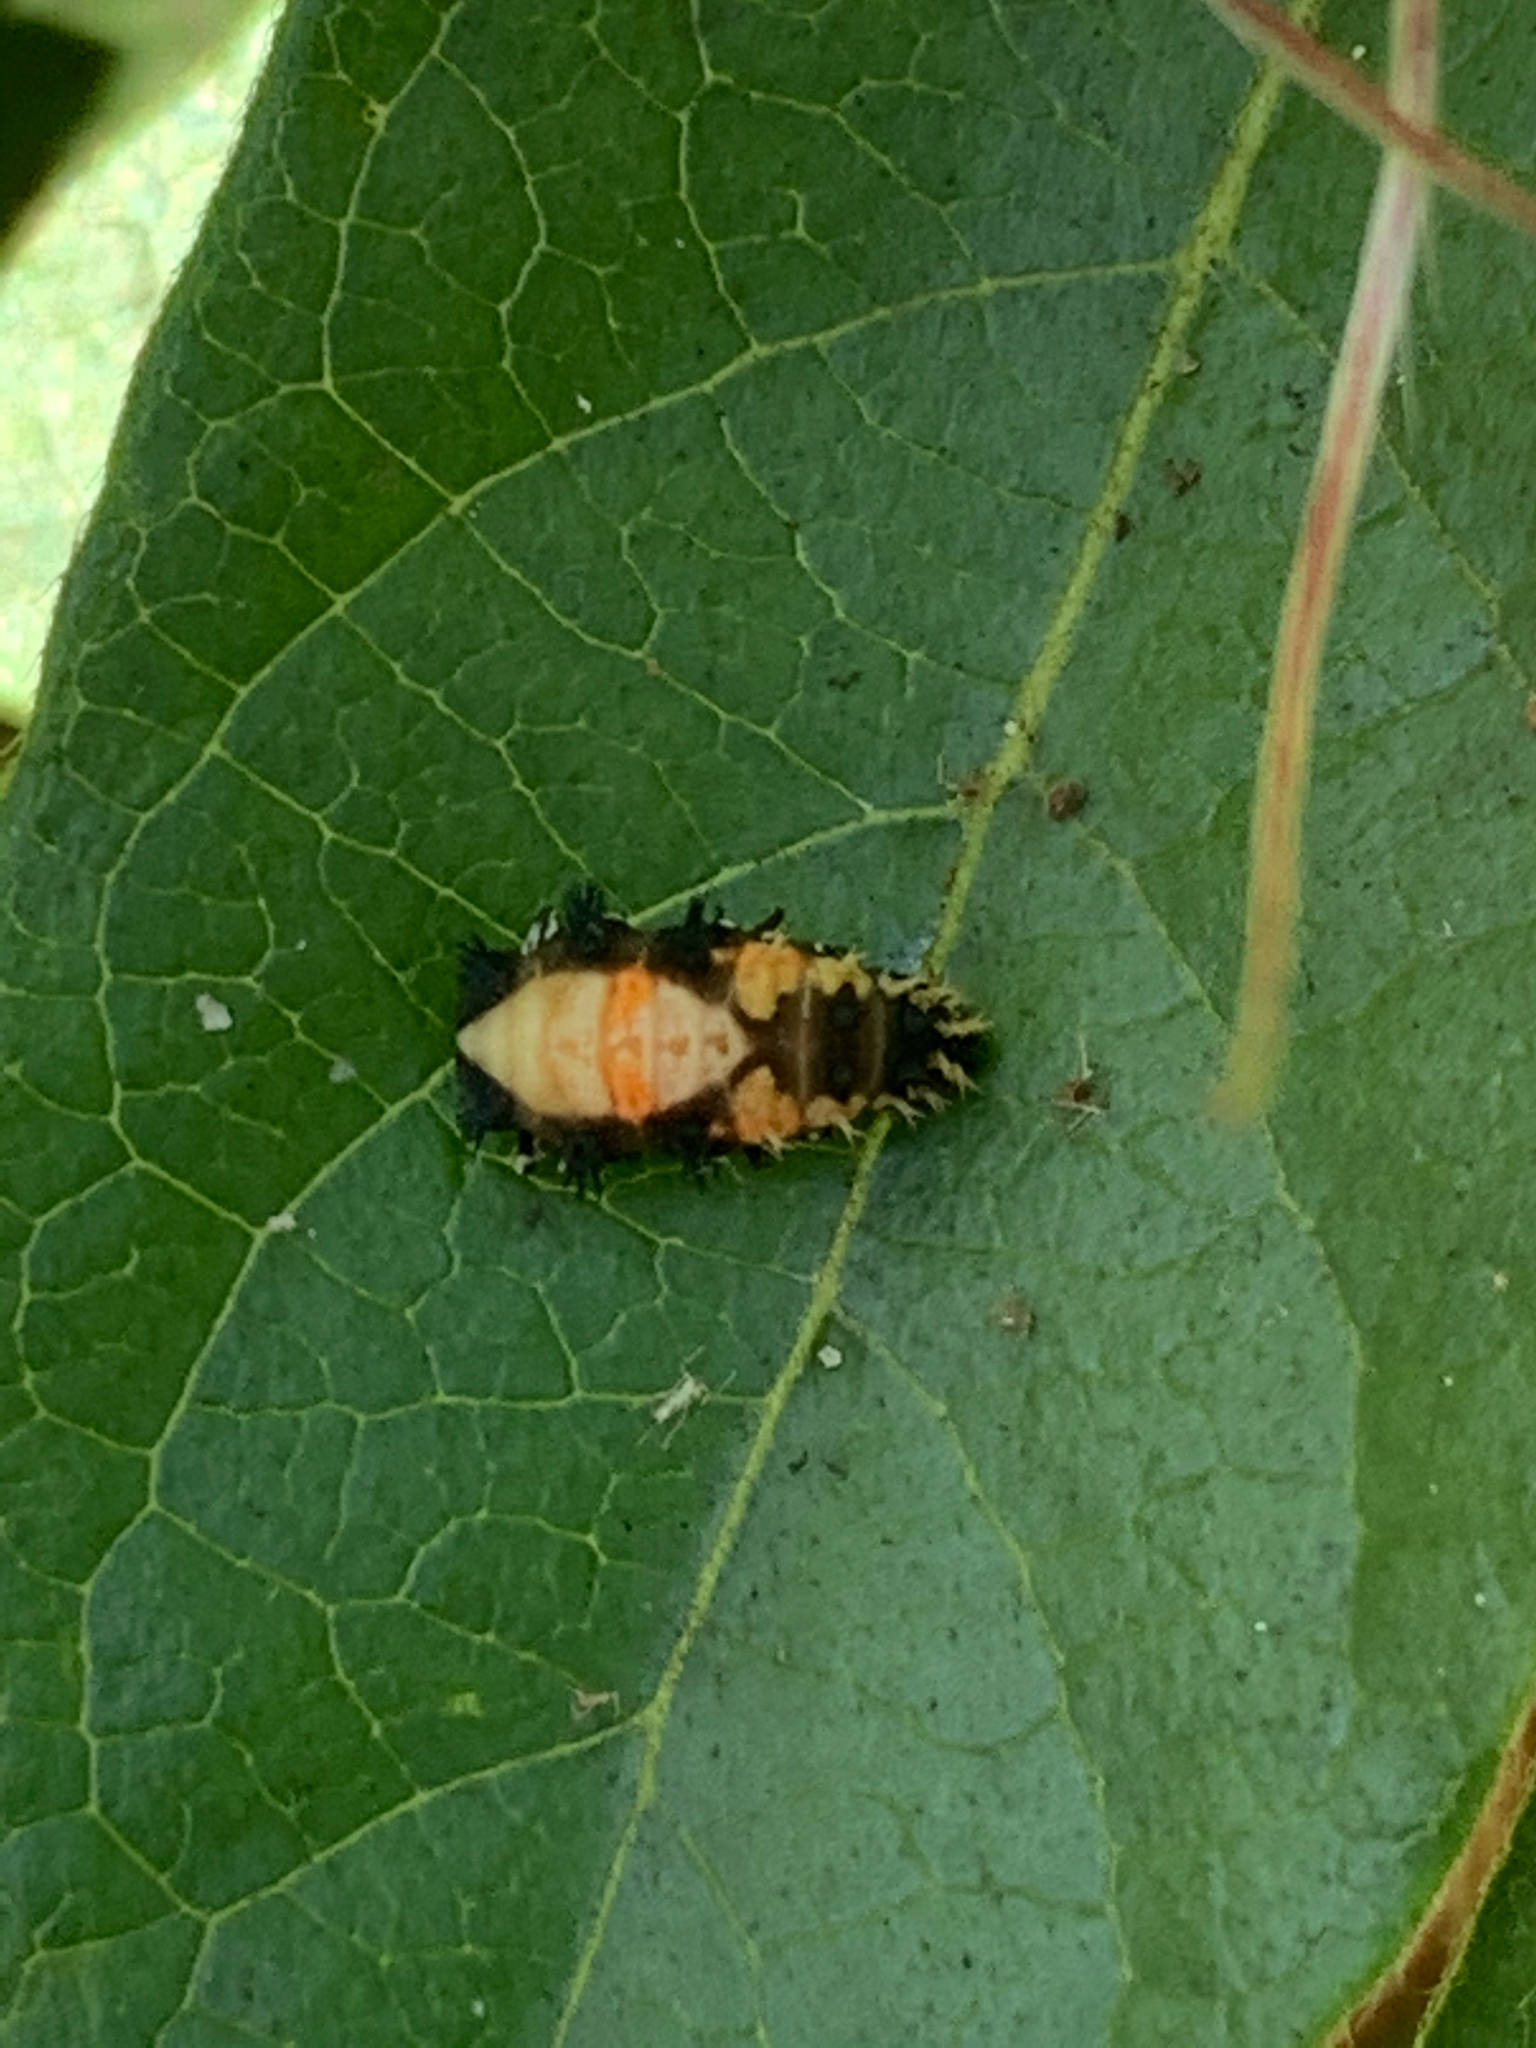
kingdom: Animalia
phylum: Arthropoda
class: Insecta
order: Coleoptera
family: Coccinellidae
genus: Harmonia
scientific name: Harmonia axyridis
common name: Harlequin ladybird
